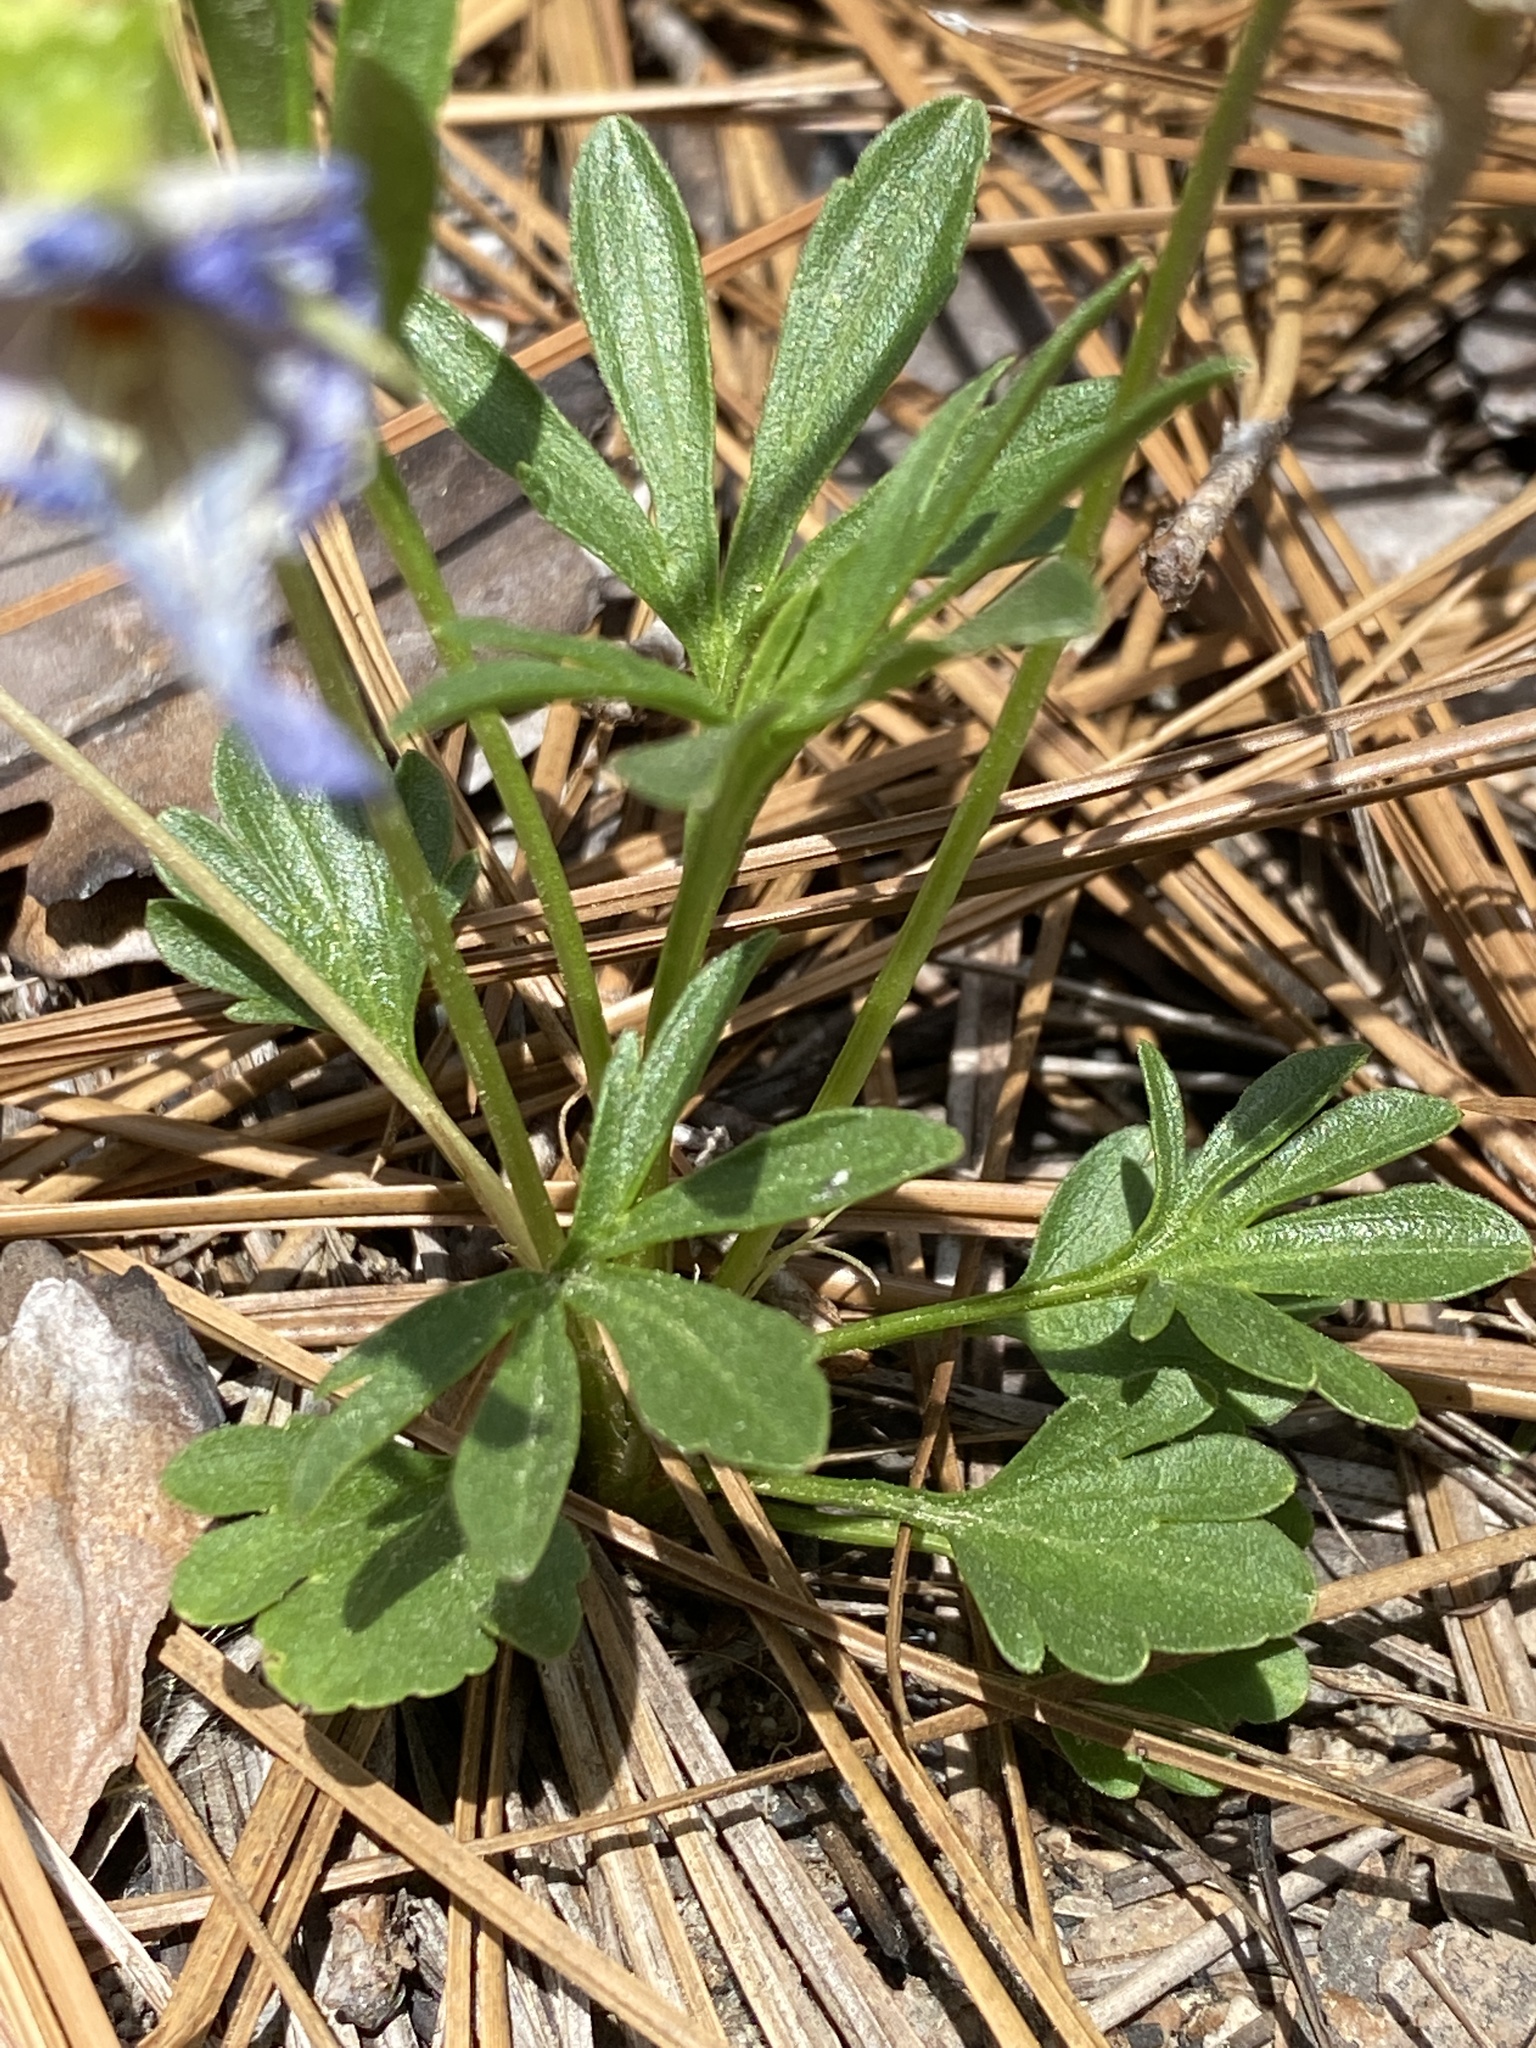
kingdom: Plantae
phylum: Tracheophyta
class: Magnoliopsida
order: Malpighiales
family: Violaceae
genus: Viola
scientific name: Viola pedata
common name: Pansy violet
